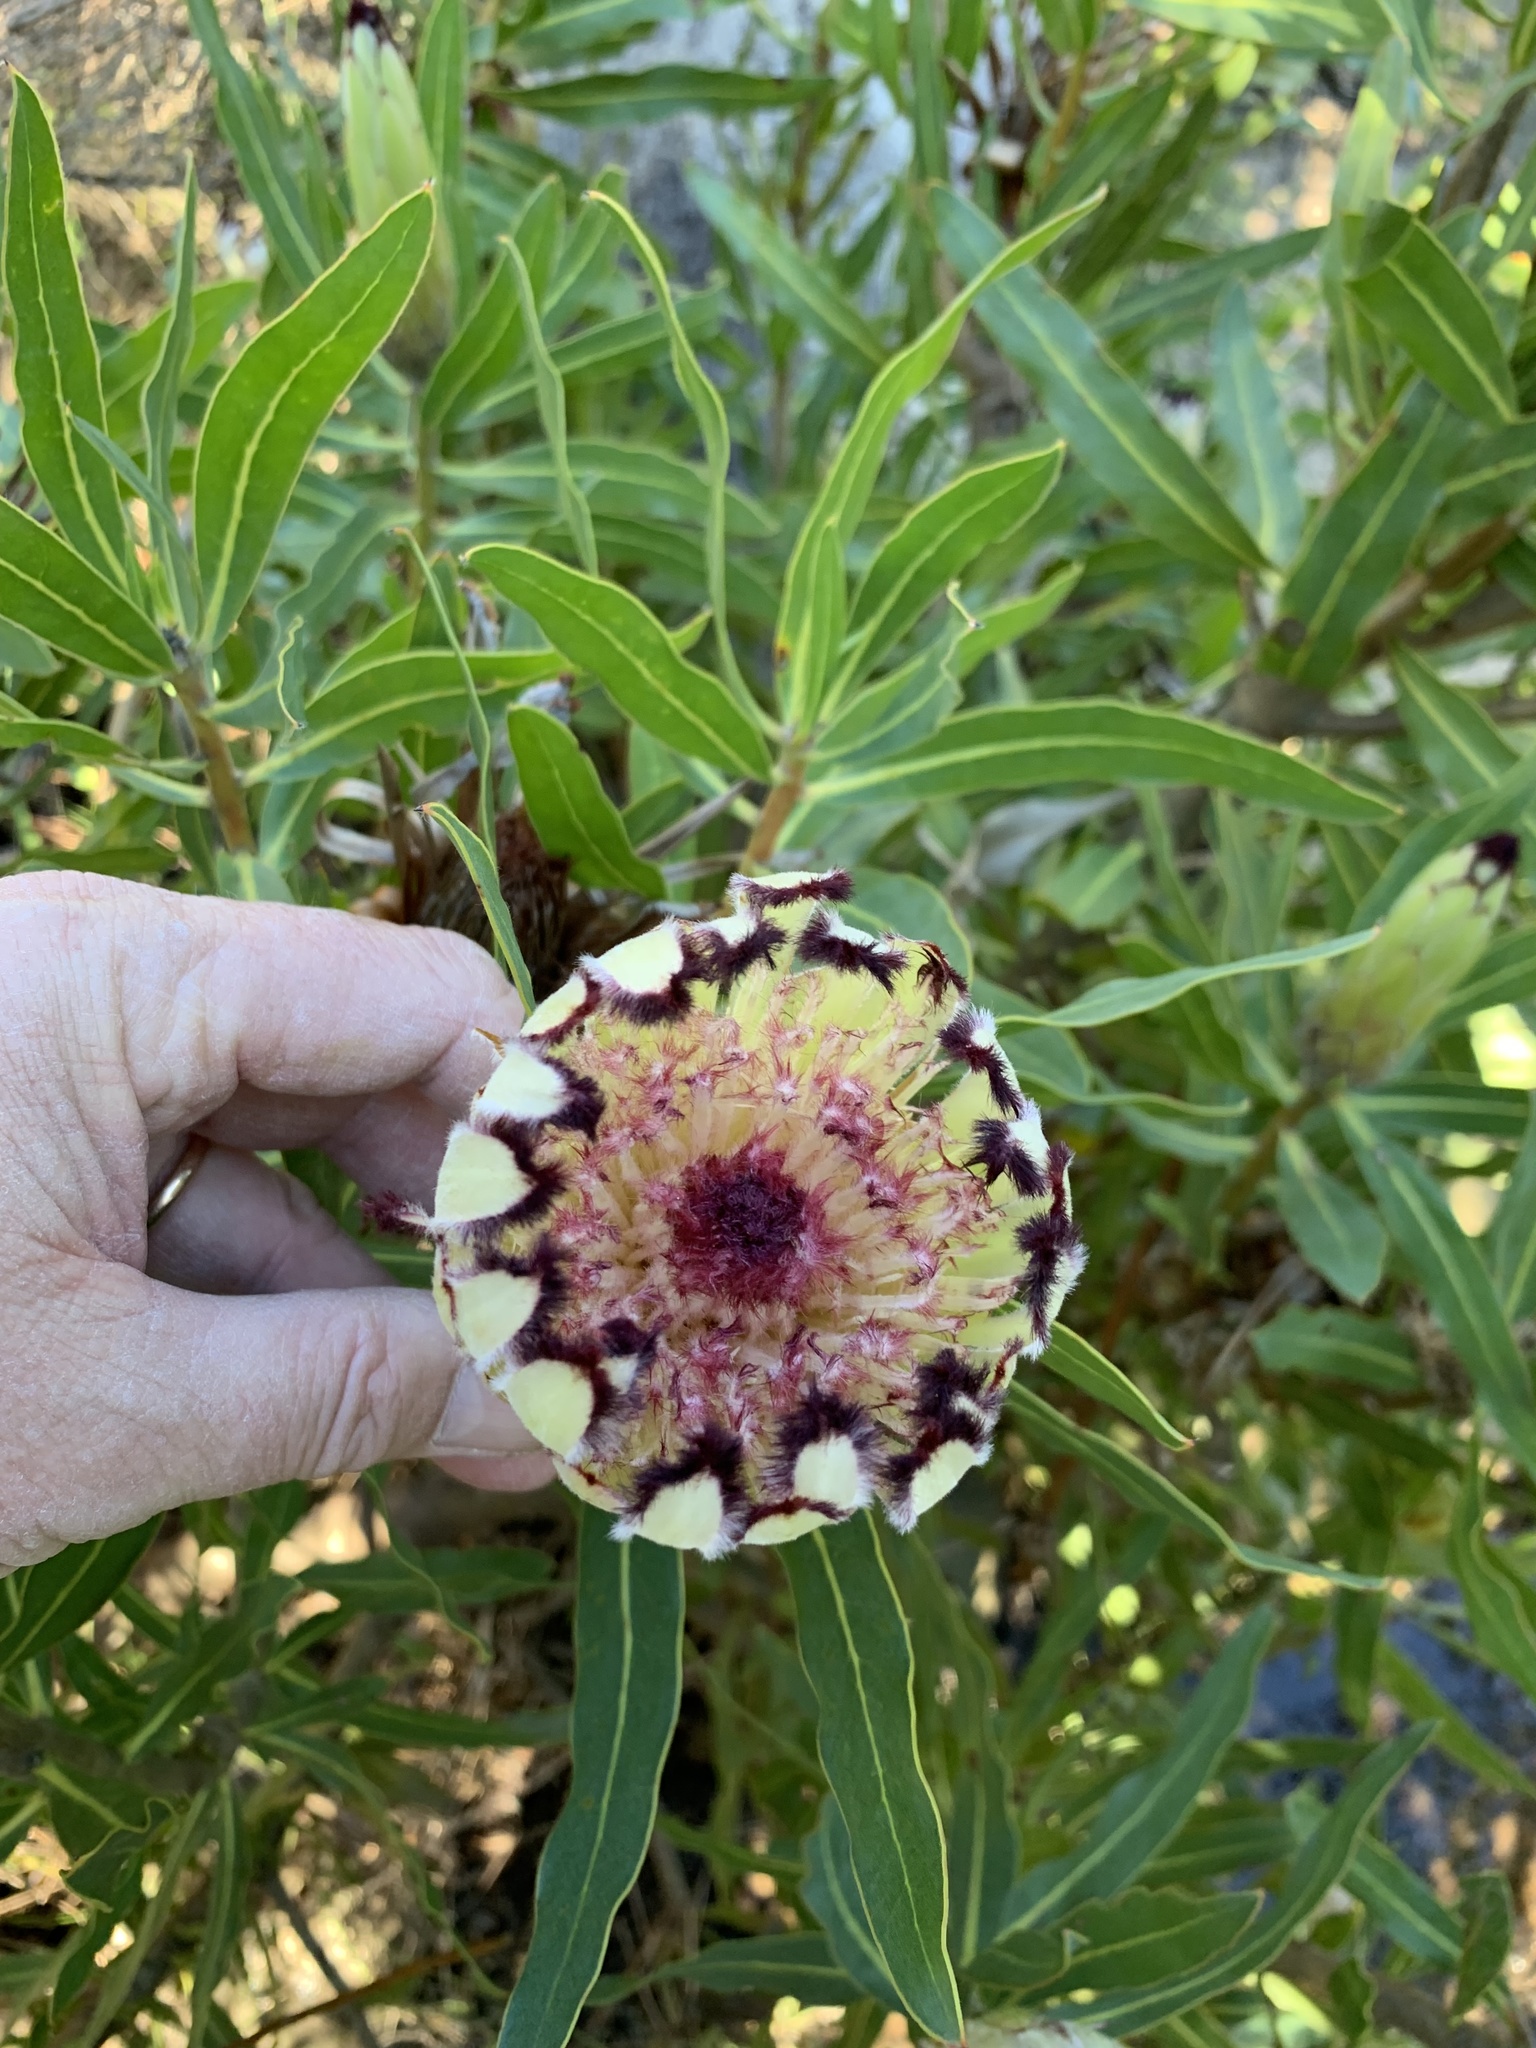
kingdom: Plantae
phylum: Tracheophyta
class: Magnoliopsida
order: Proteales
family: Proteaceae
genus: Protea
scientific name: Protea burchellii
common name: Burchell's sugarbush
